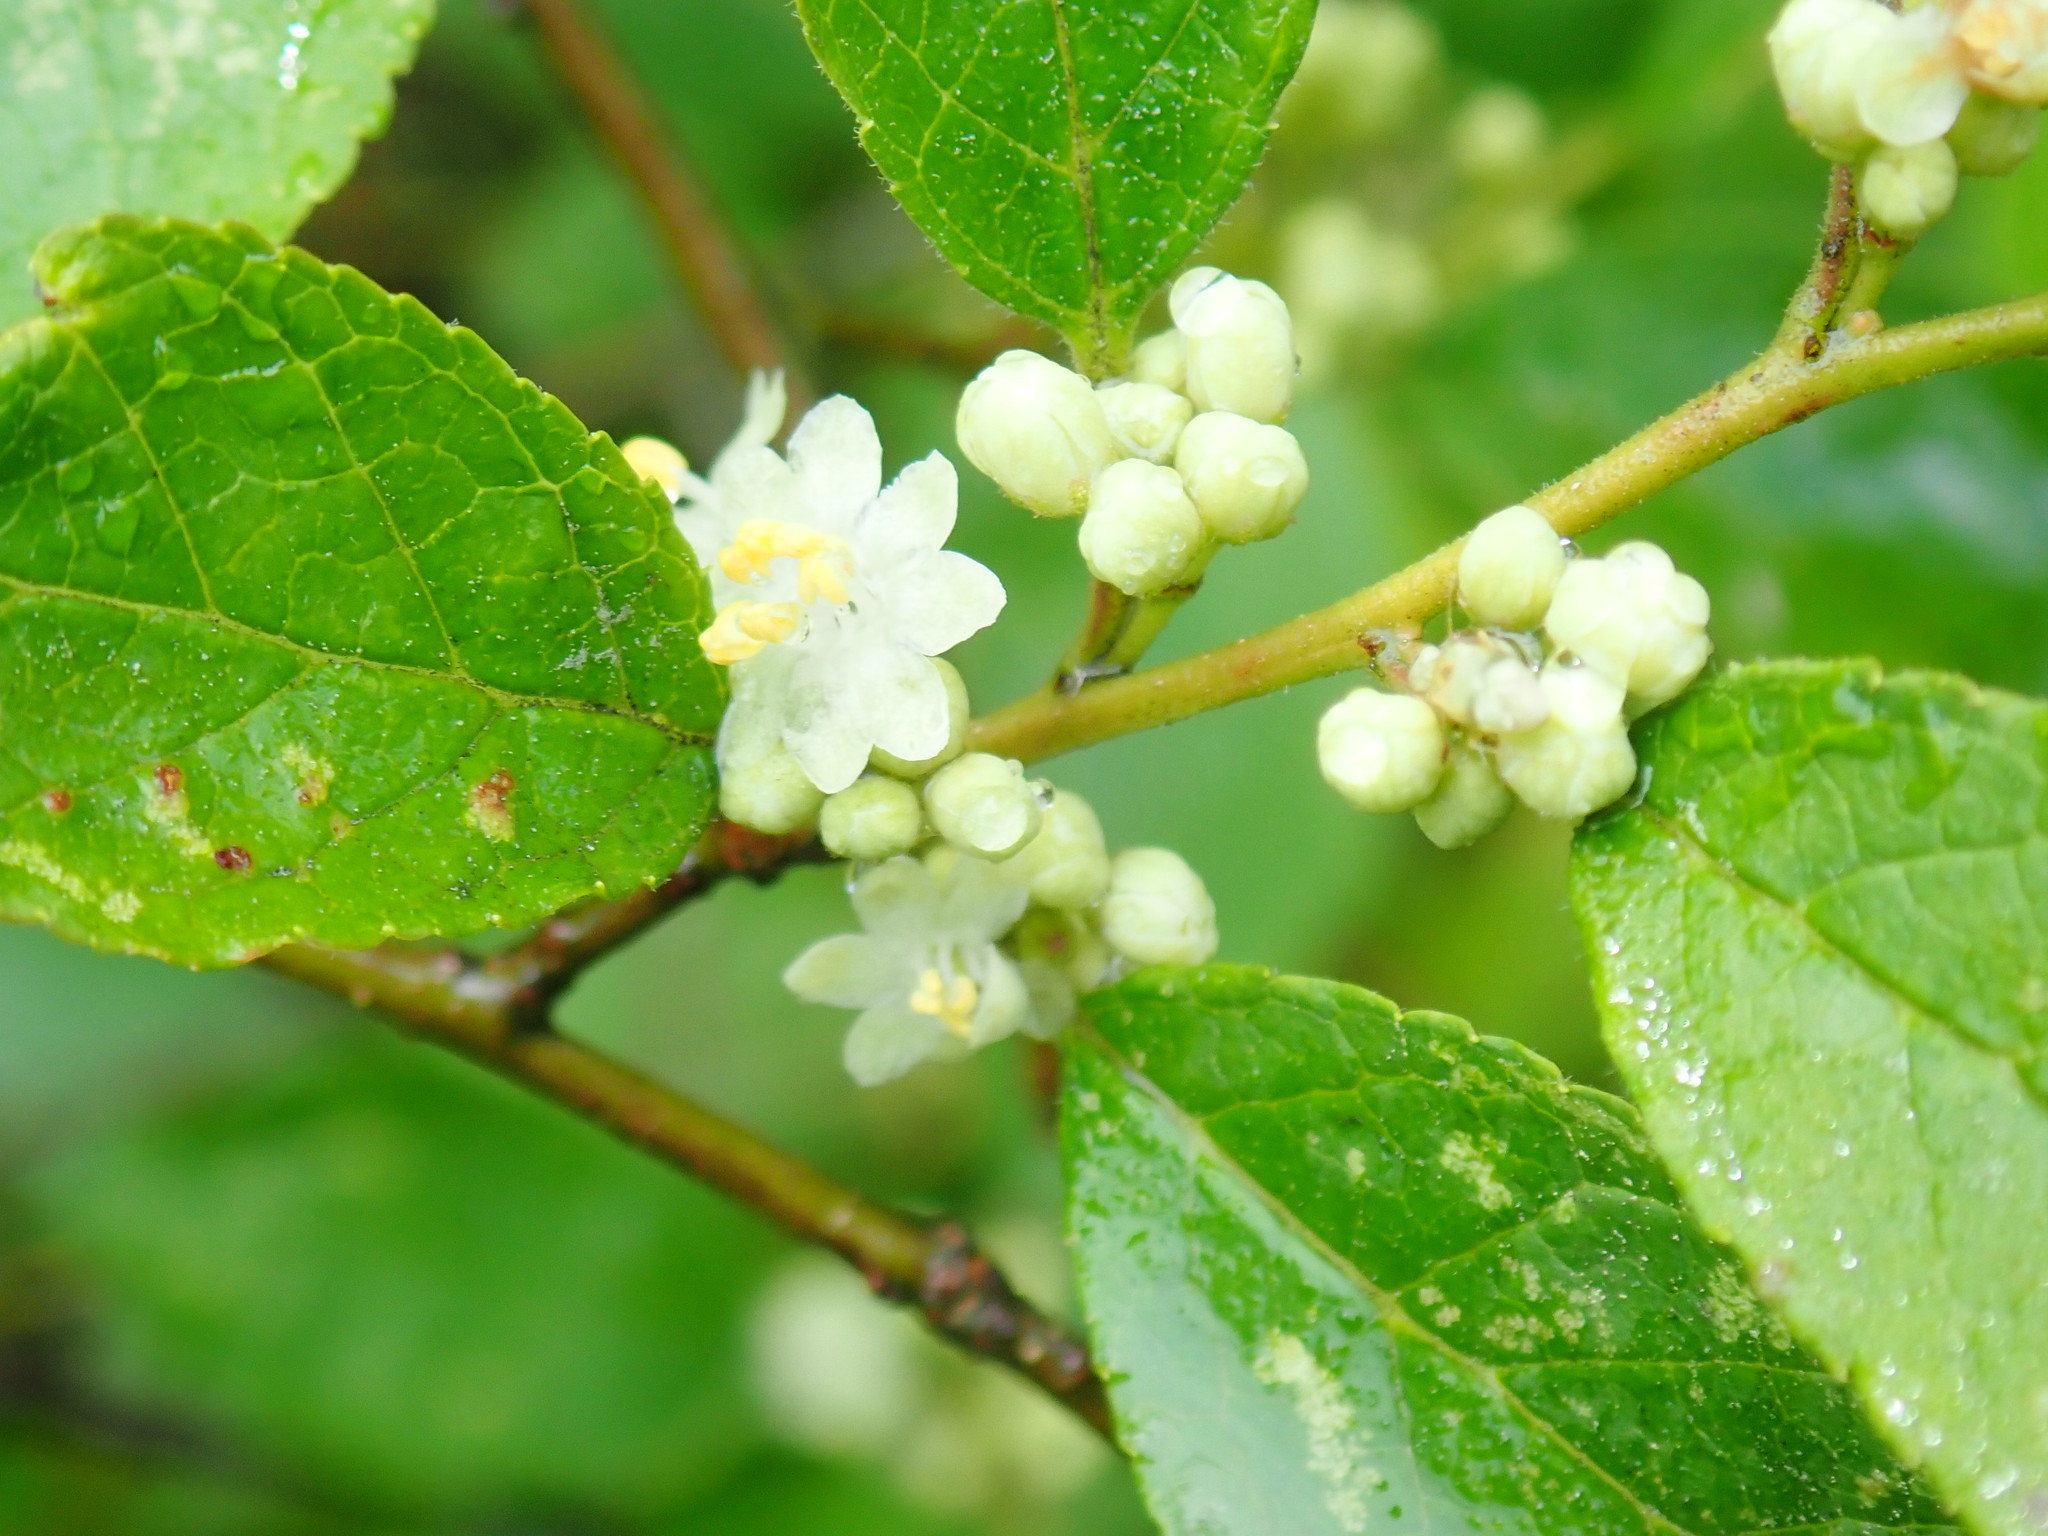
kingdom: Plantae
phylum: Tracheophyta
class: Magnoliopsida
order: Aquifoliales
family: Aquifoliaceae
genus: Ilex
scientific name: Ilex verticillata
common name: Virginia winterberry
